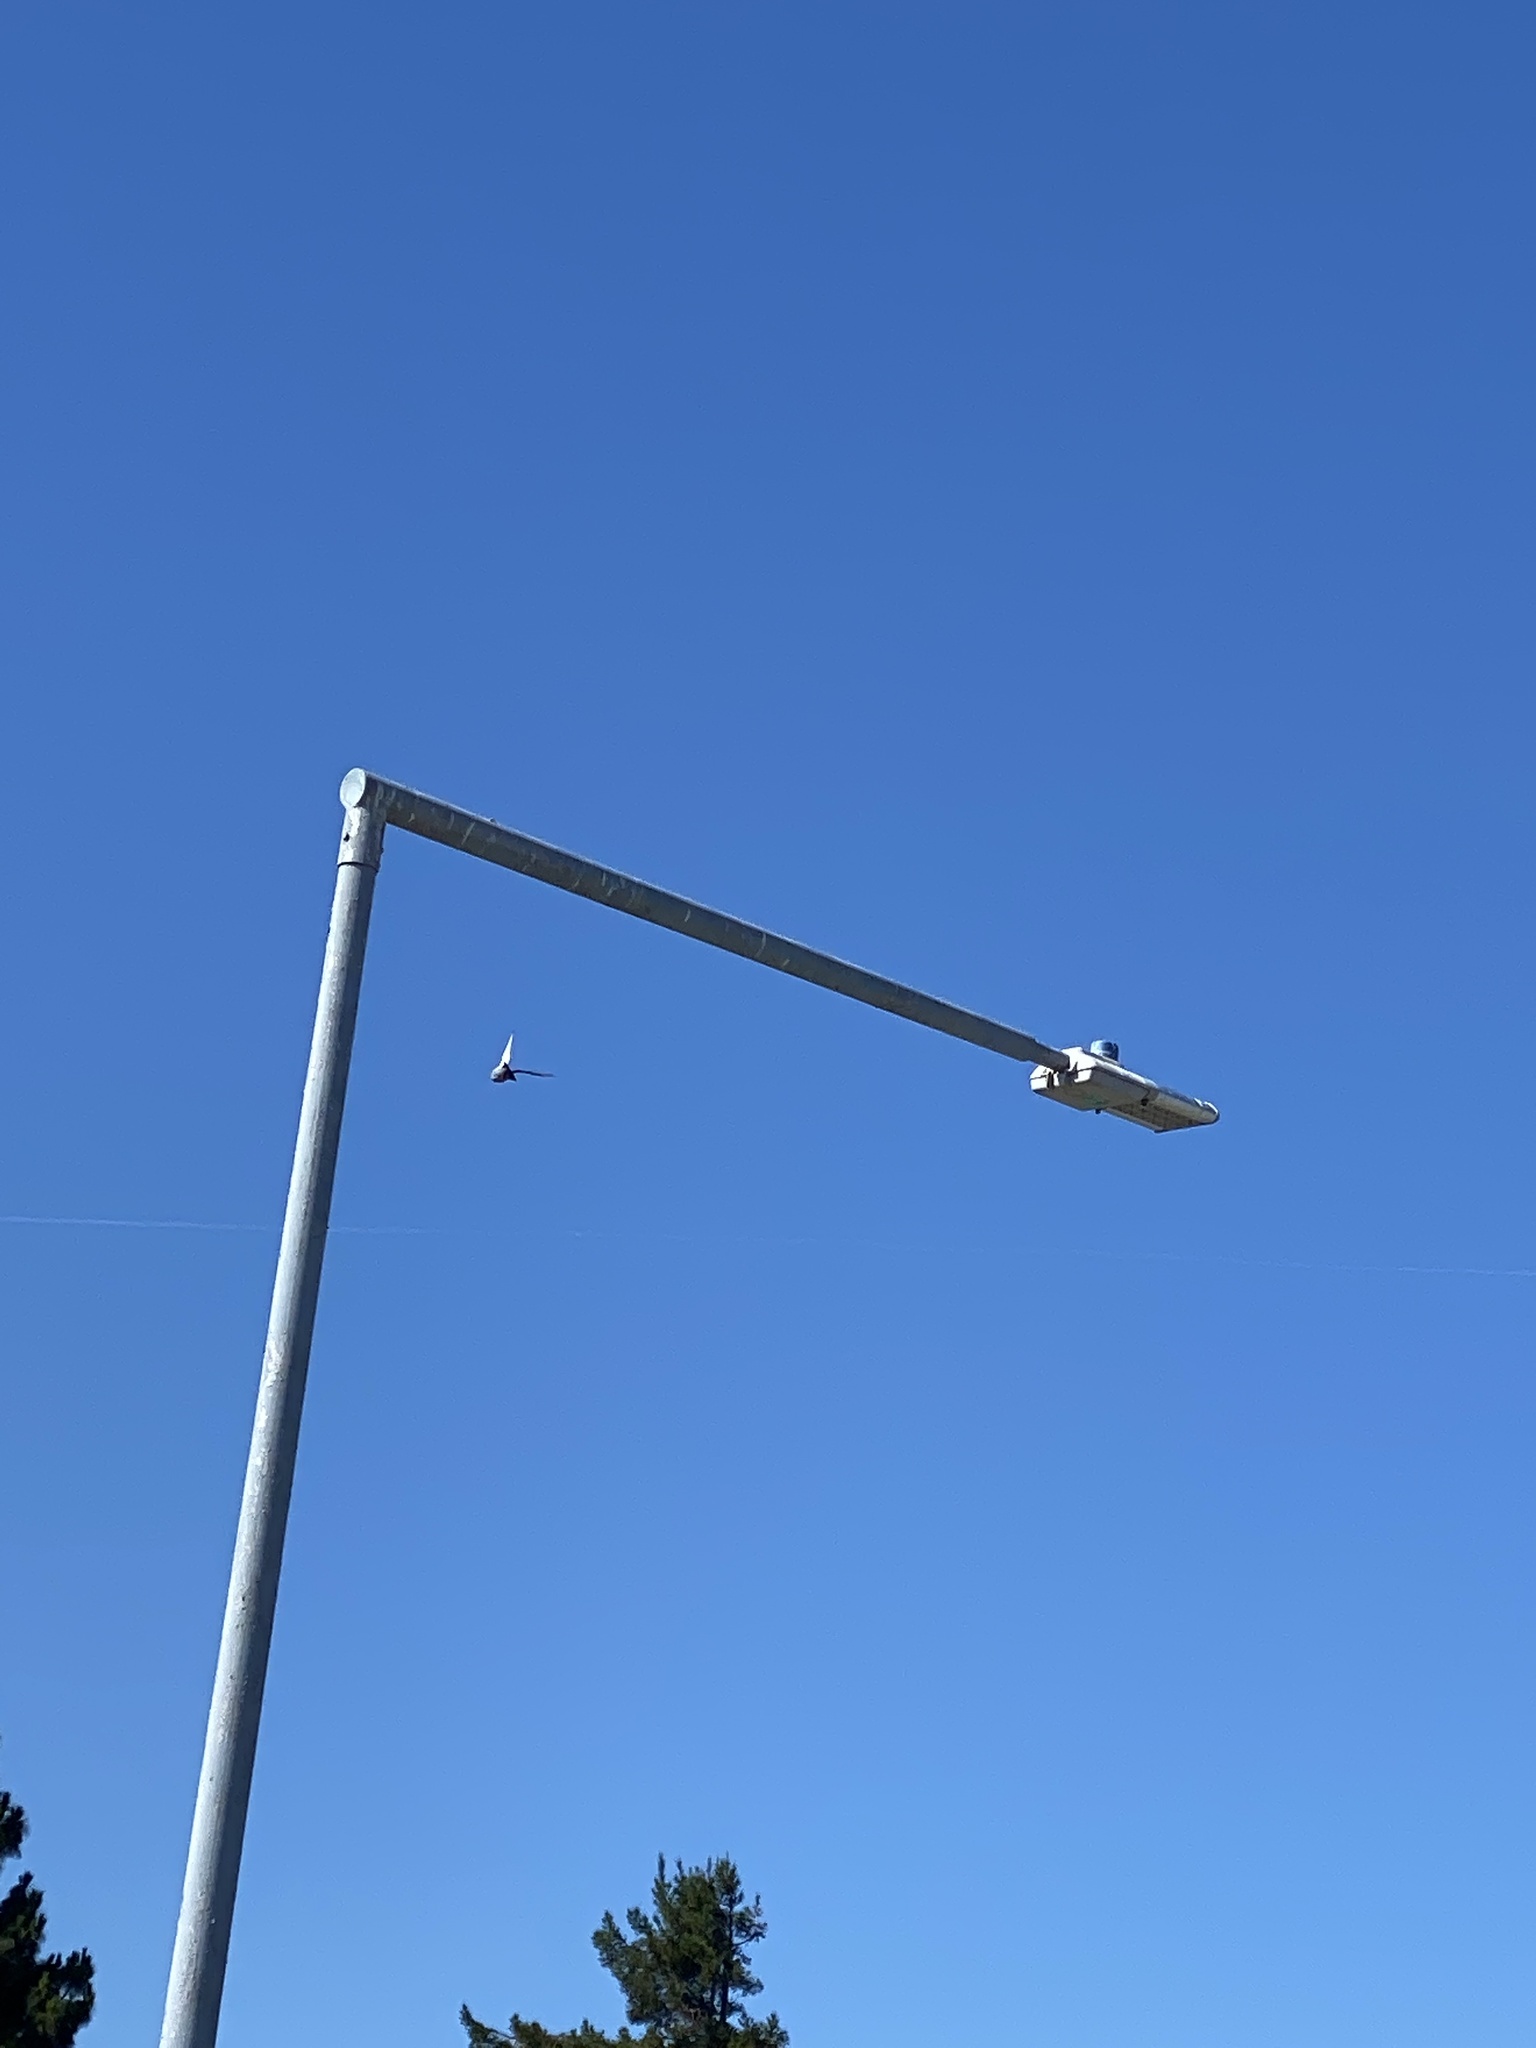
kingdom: Animalia
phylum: Chordata
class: Aves
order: Columbiformes
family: Columbidae
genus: Columba
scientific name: Columba livia
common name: Rock pigeon
